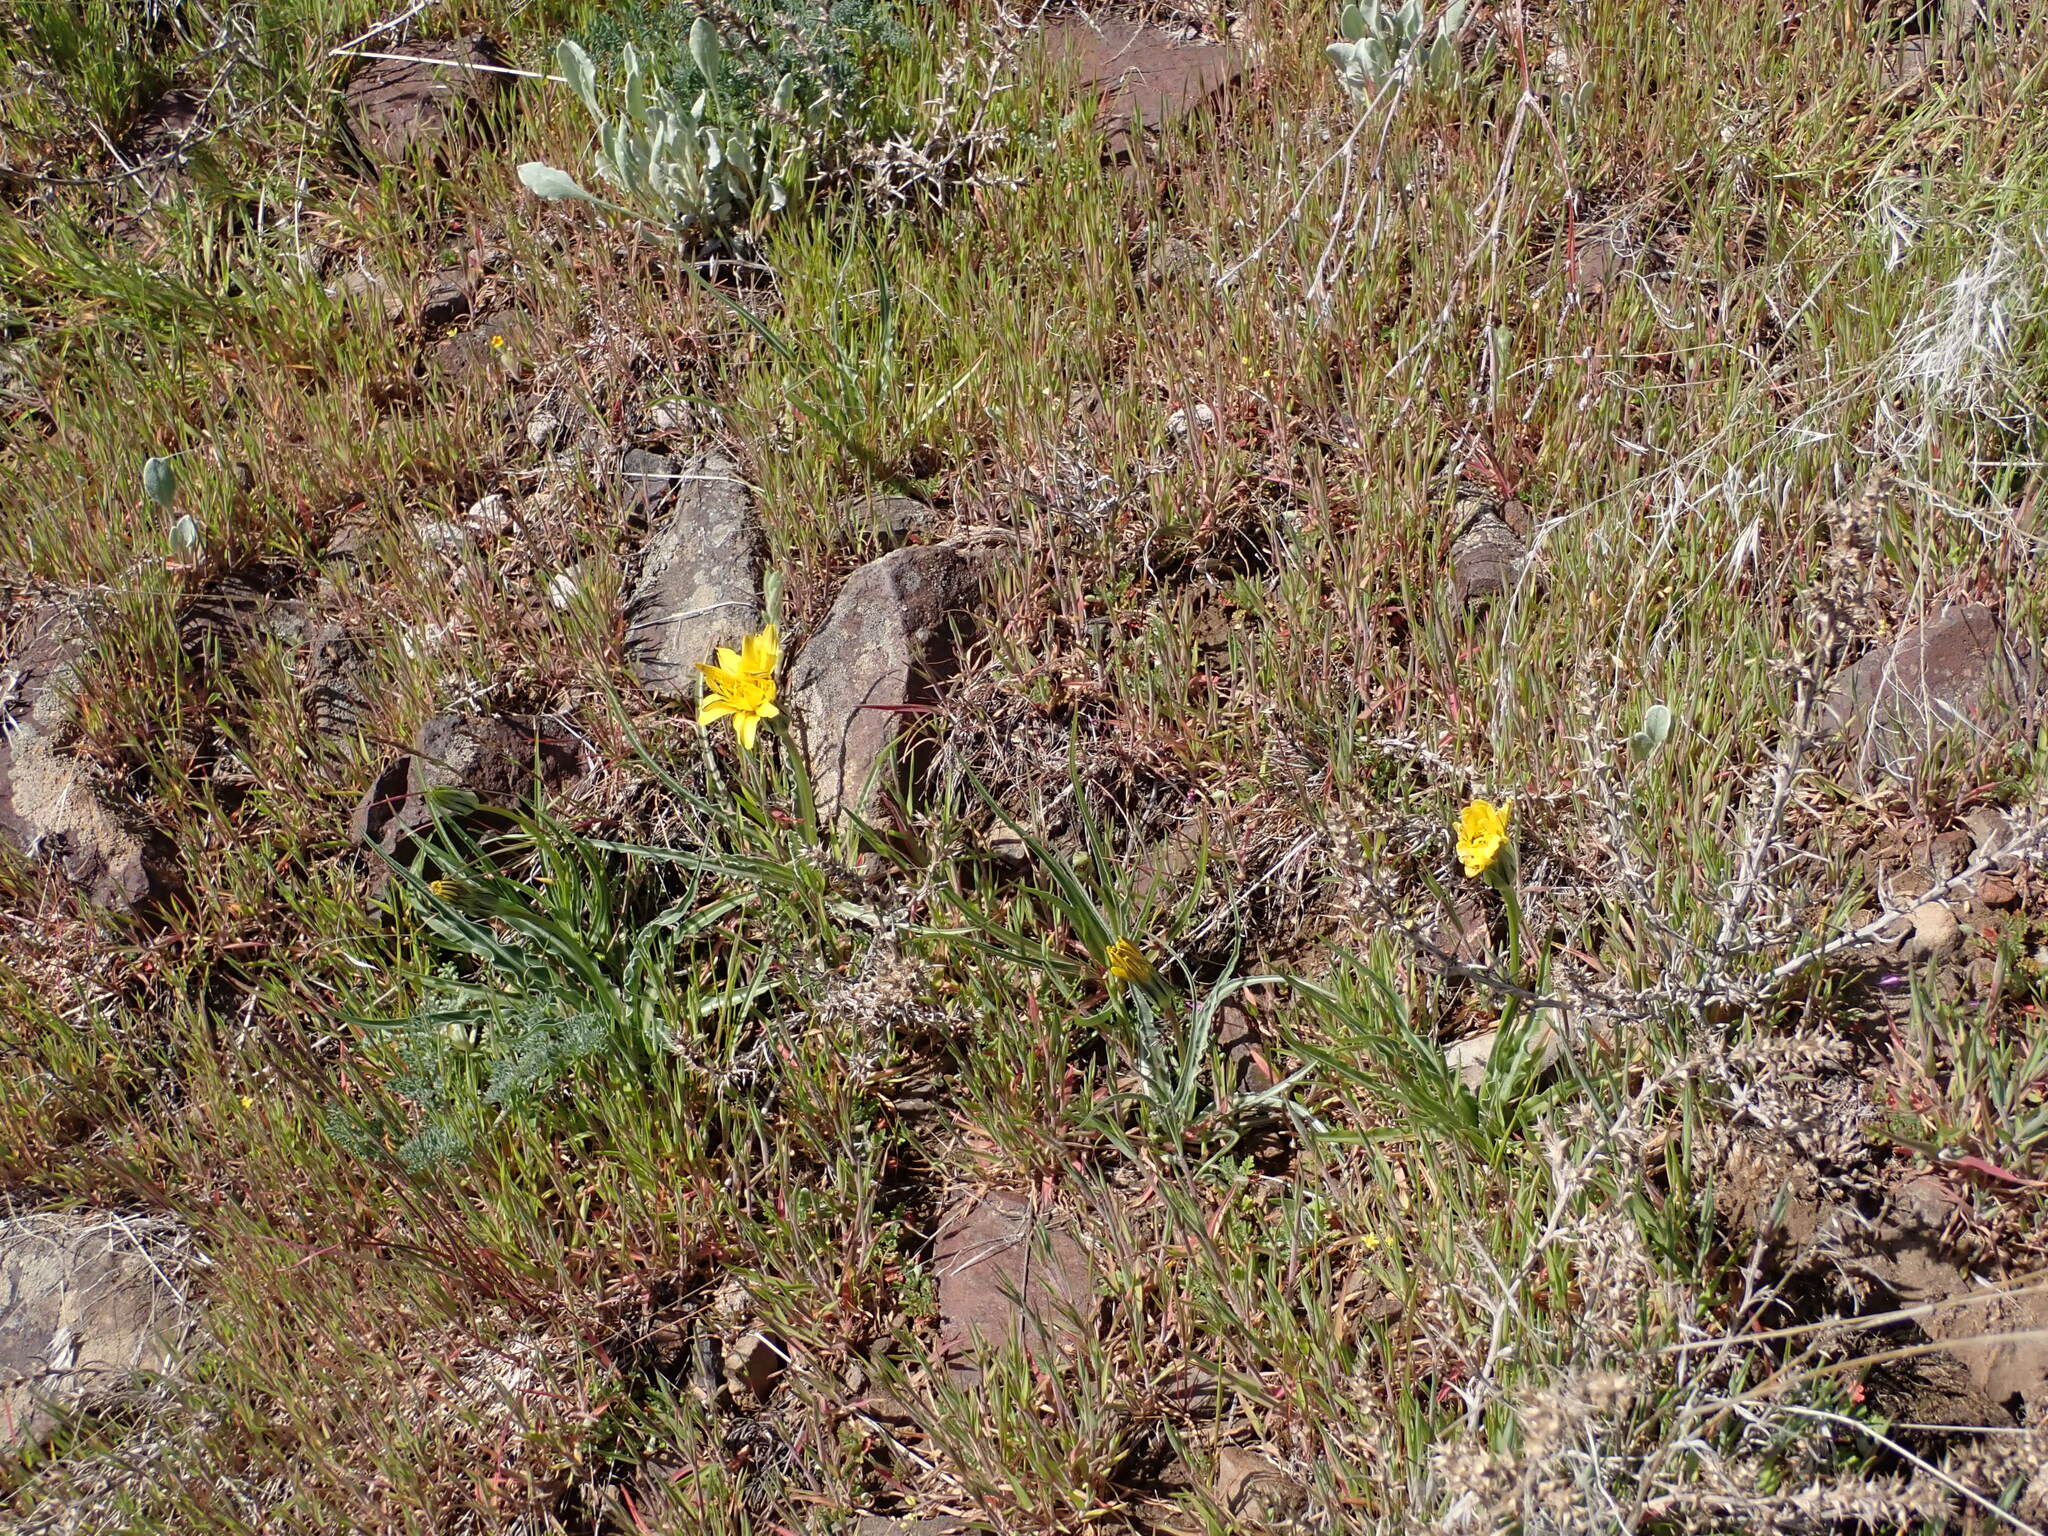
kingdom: Plantae
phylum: Tracheophyta
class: Magnoliopsida
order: Asterales
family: Asteraceae
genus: Microseris
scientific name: Microseris troximoides
